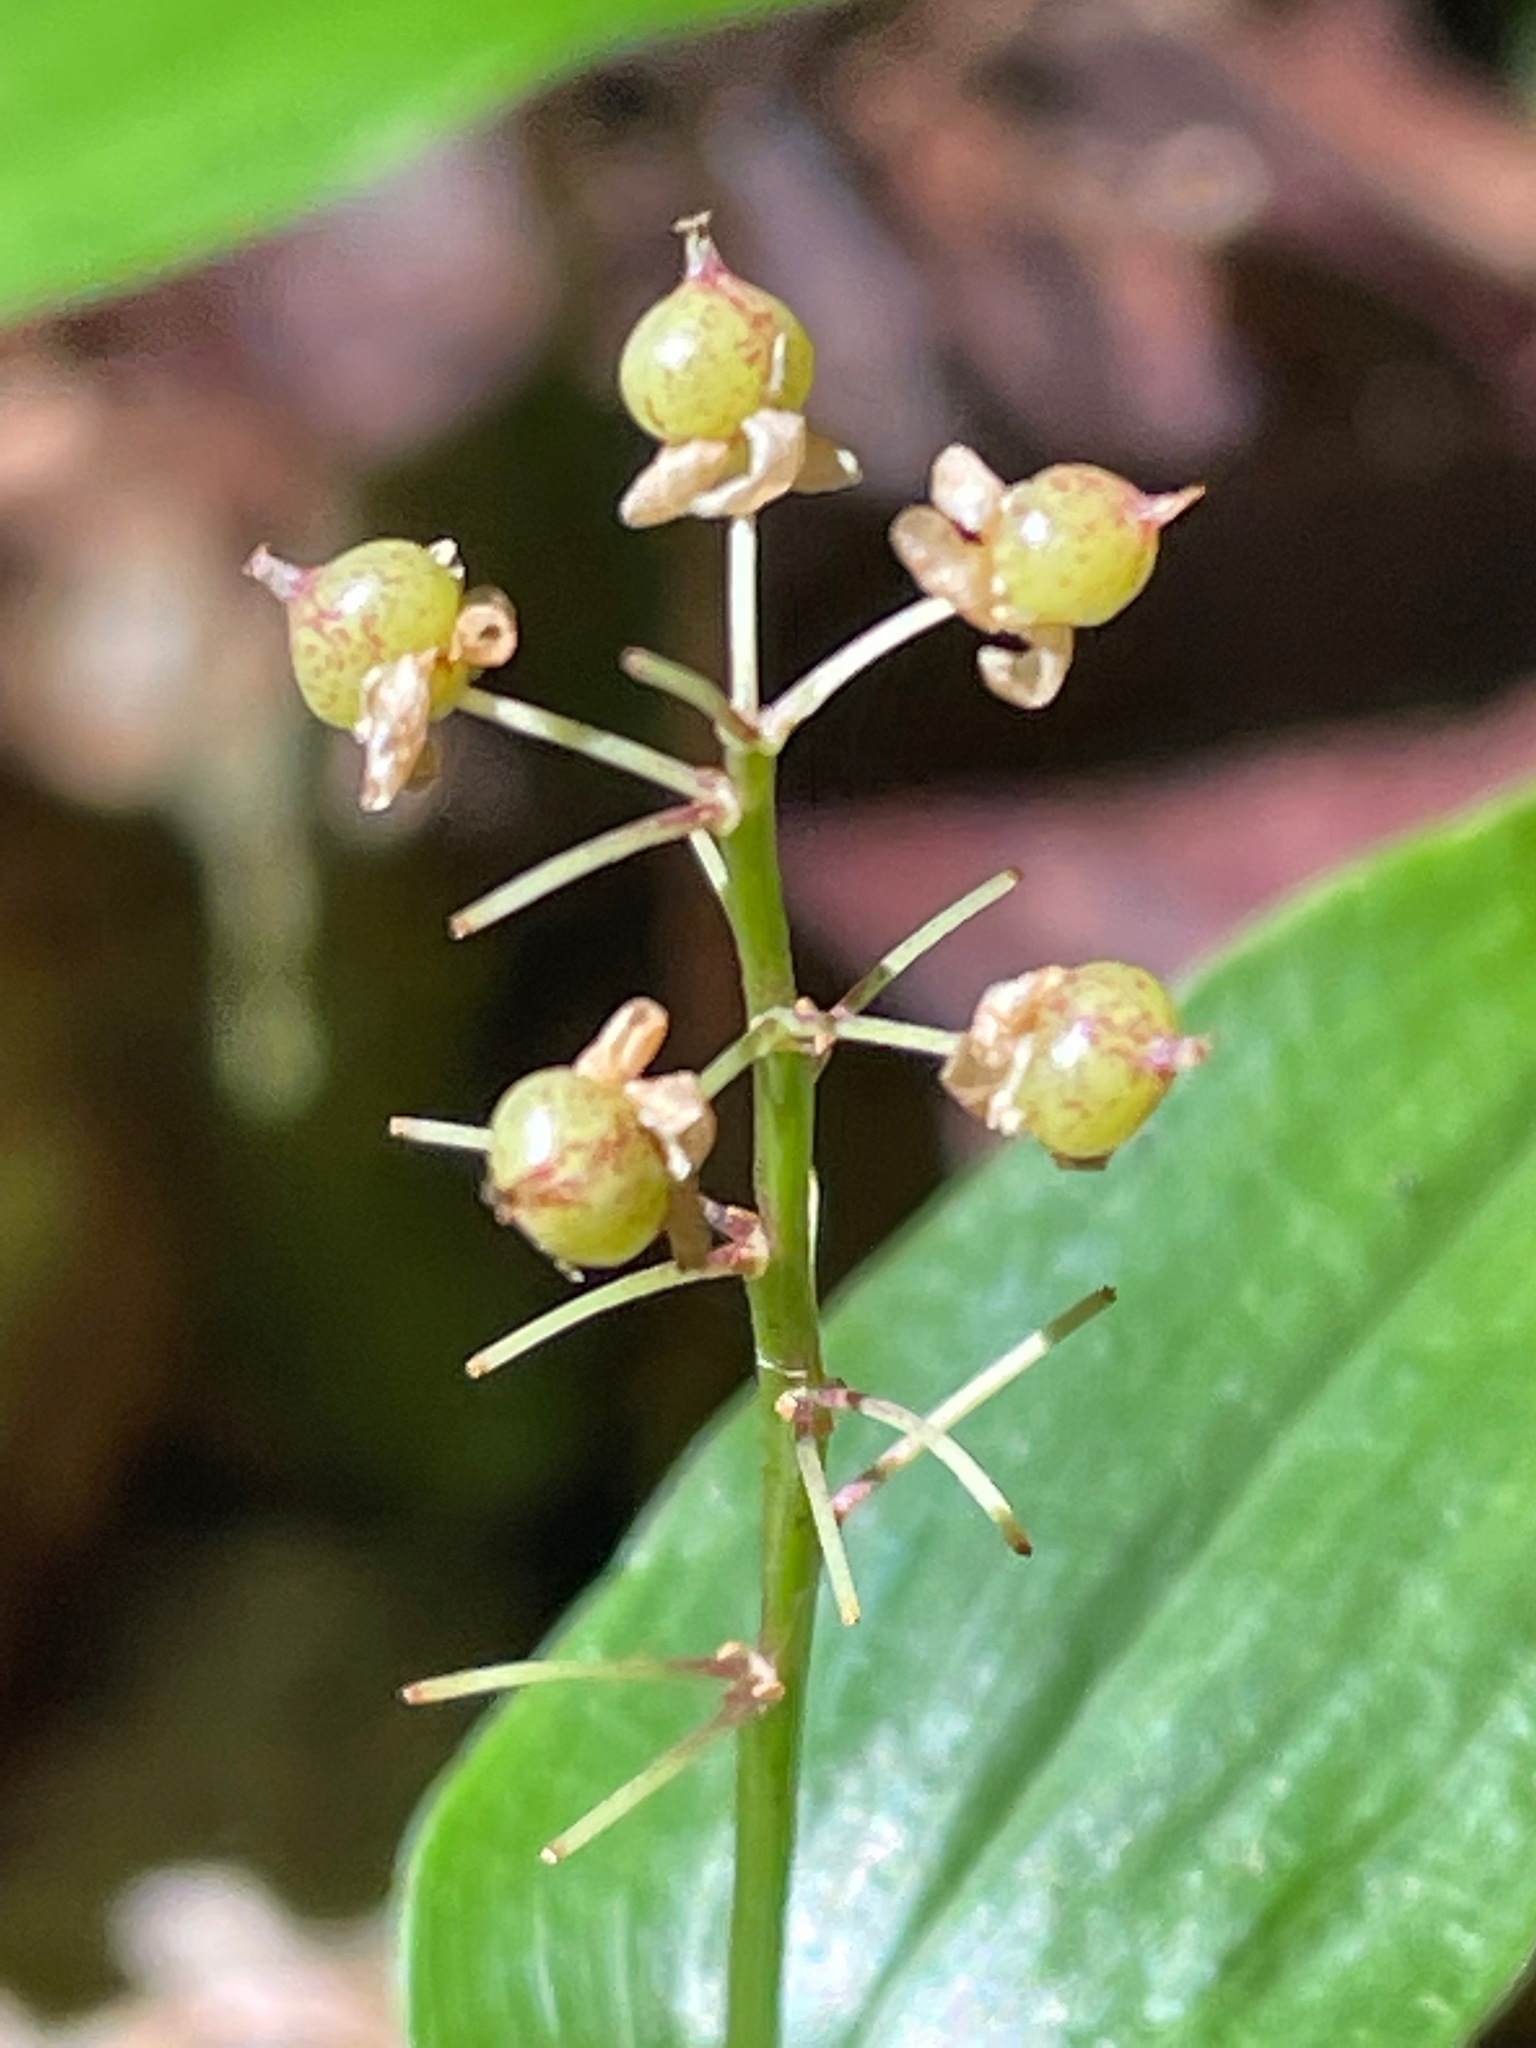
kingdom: Plantae
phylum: Tracheophyta
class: Liliopsida
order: Asparagales
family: Asparagaceae
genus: Maianthemum
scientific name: Maianthemum canadense
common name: False lily-of-the-valley
